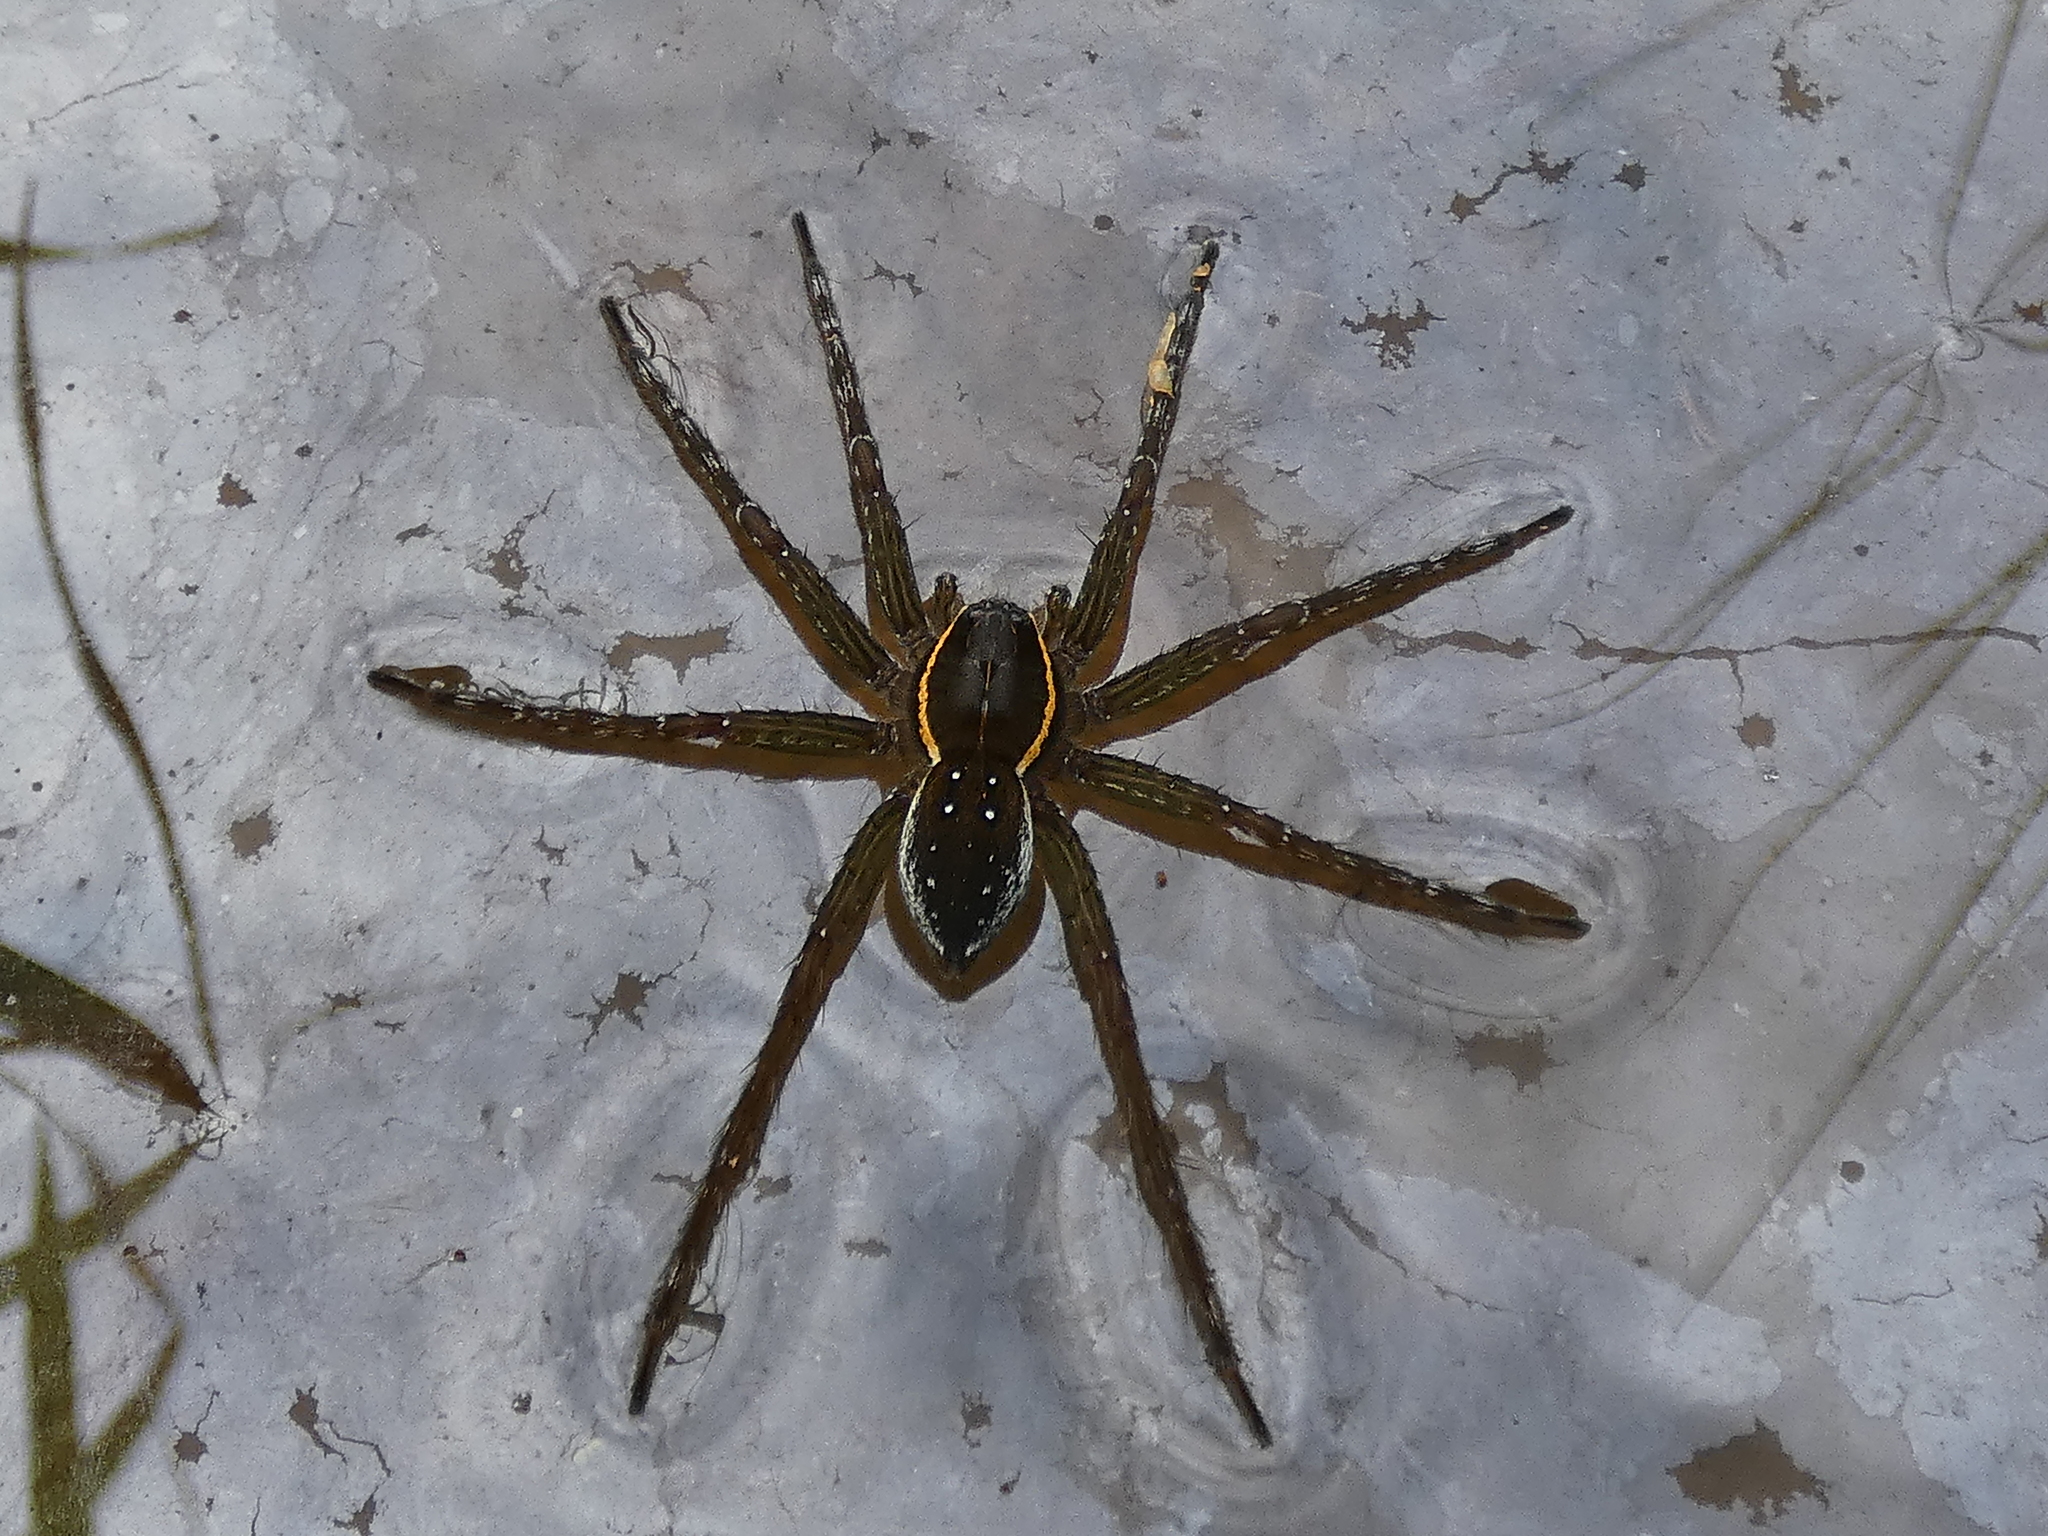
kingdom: Animalia
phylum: Arthropoda
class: Arachnida
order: Araneae
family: Pisauridae
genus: Dolomedes
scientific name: Dolomedes triton
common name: Six-spotted fishing spider
